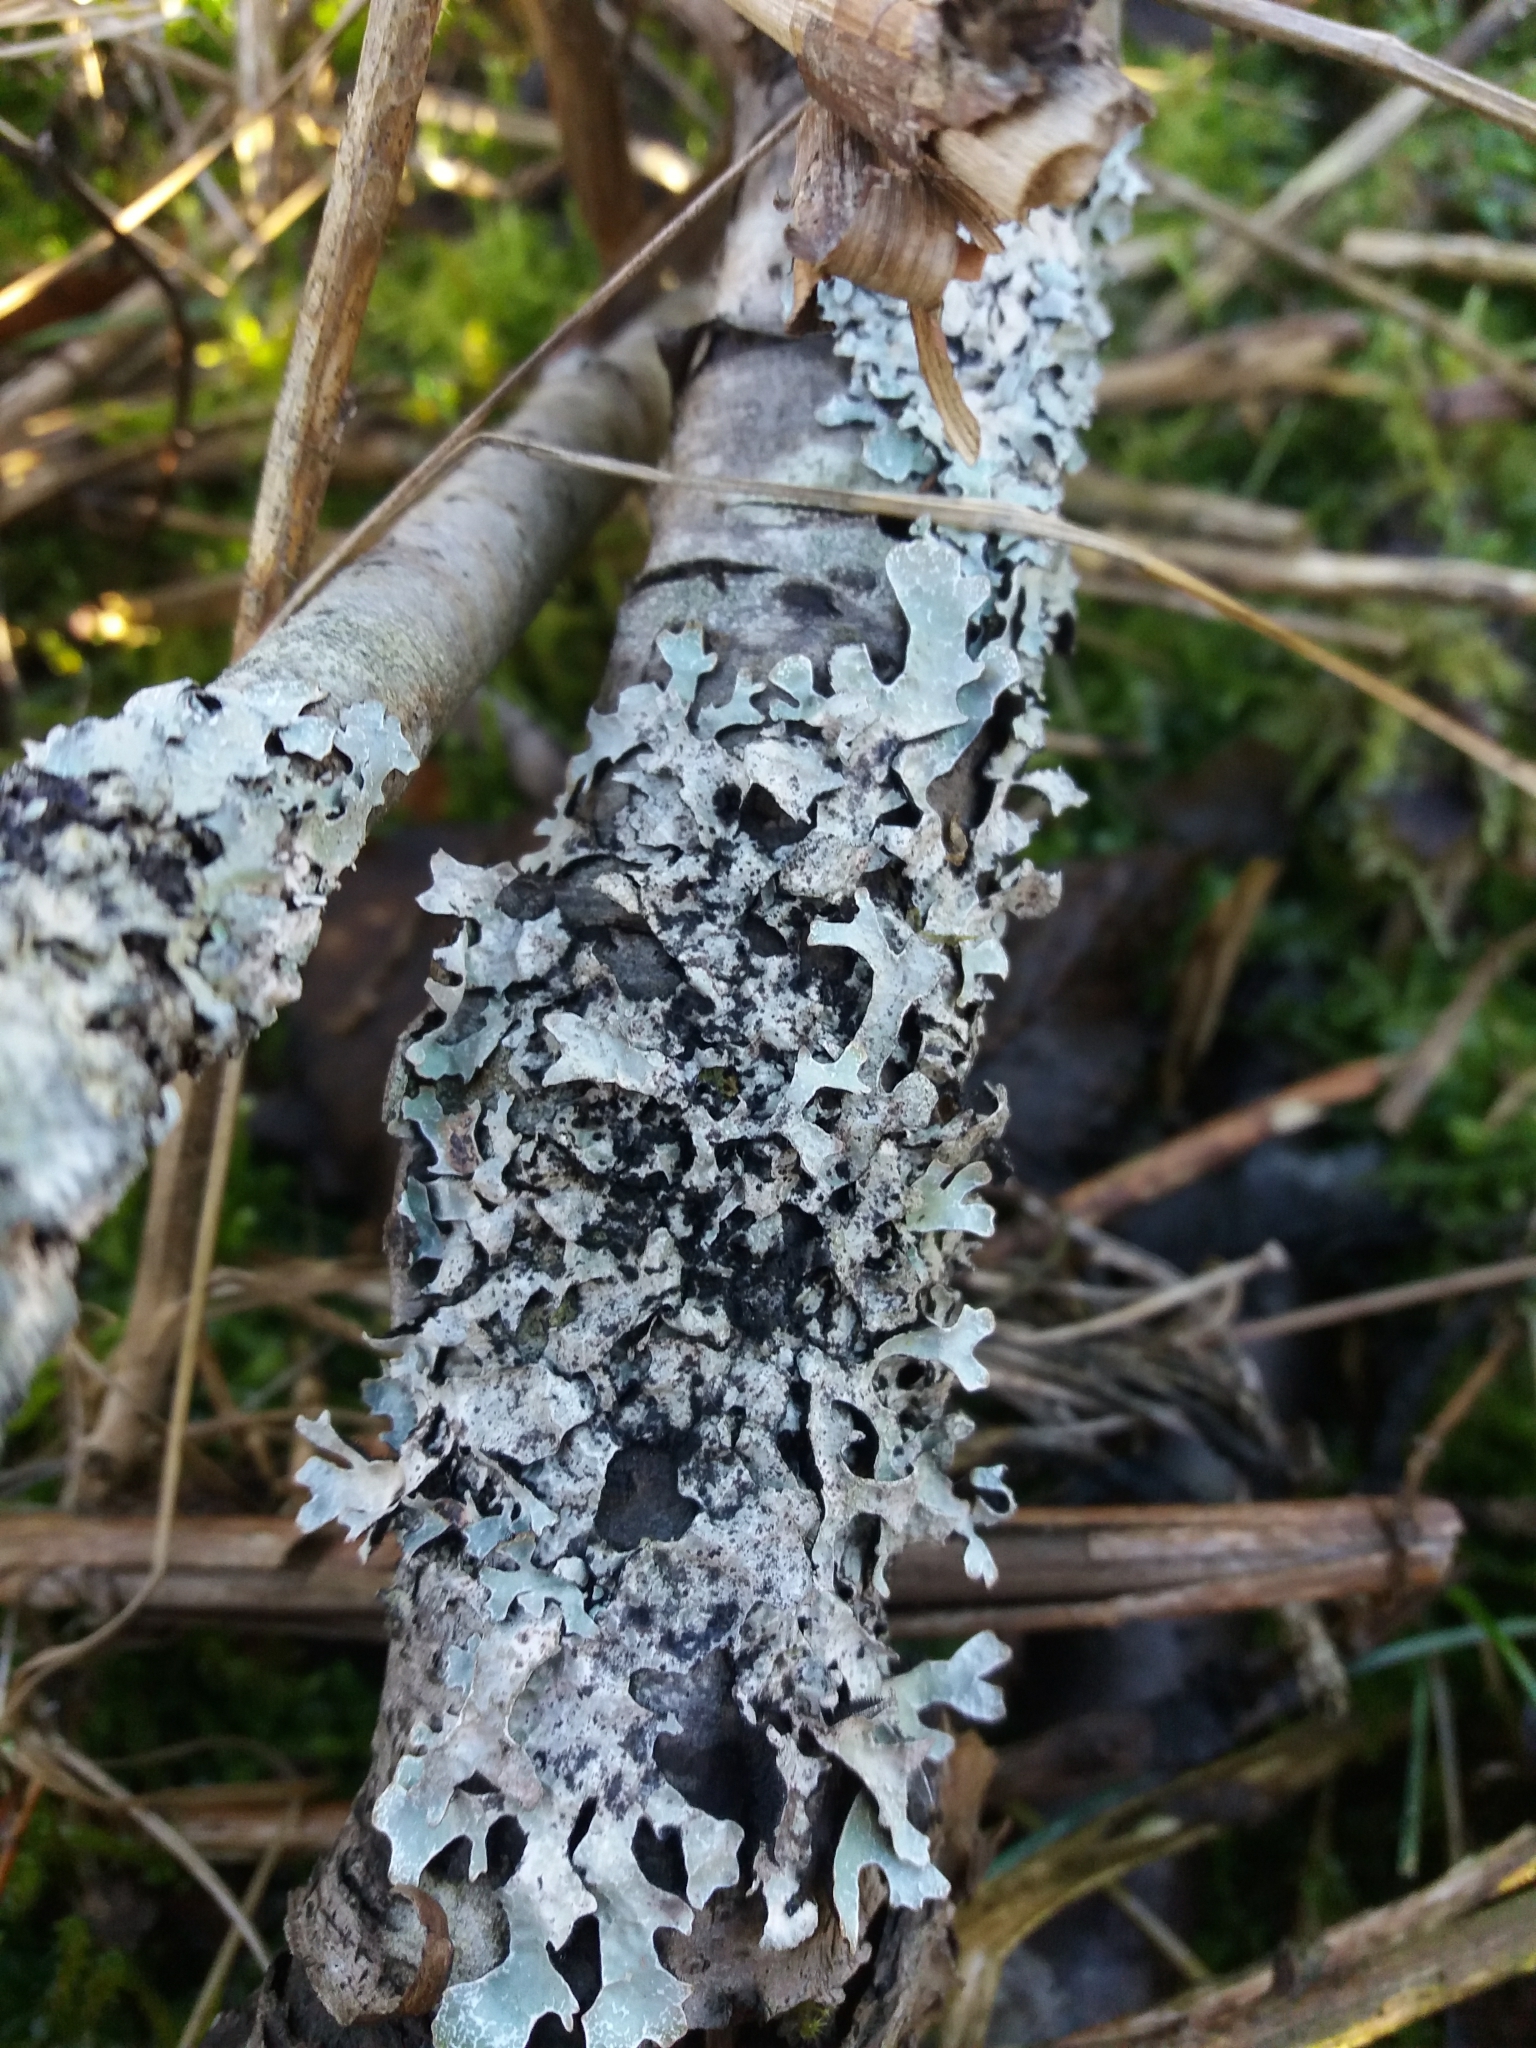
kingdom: Fungi
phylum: Ascomycota
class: Lecanoromycetes
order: Lecanorales
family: Parmeliaceae
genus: Parmelia
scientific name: Parmelia sulcata
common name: Netted shield lichen
